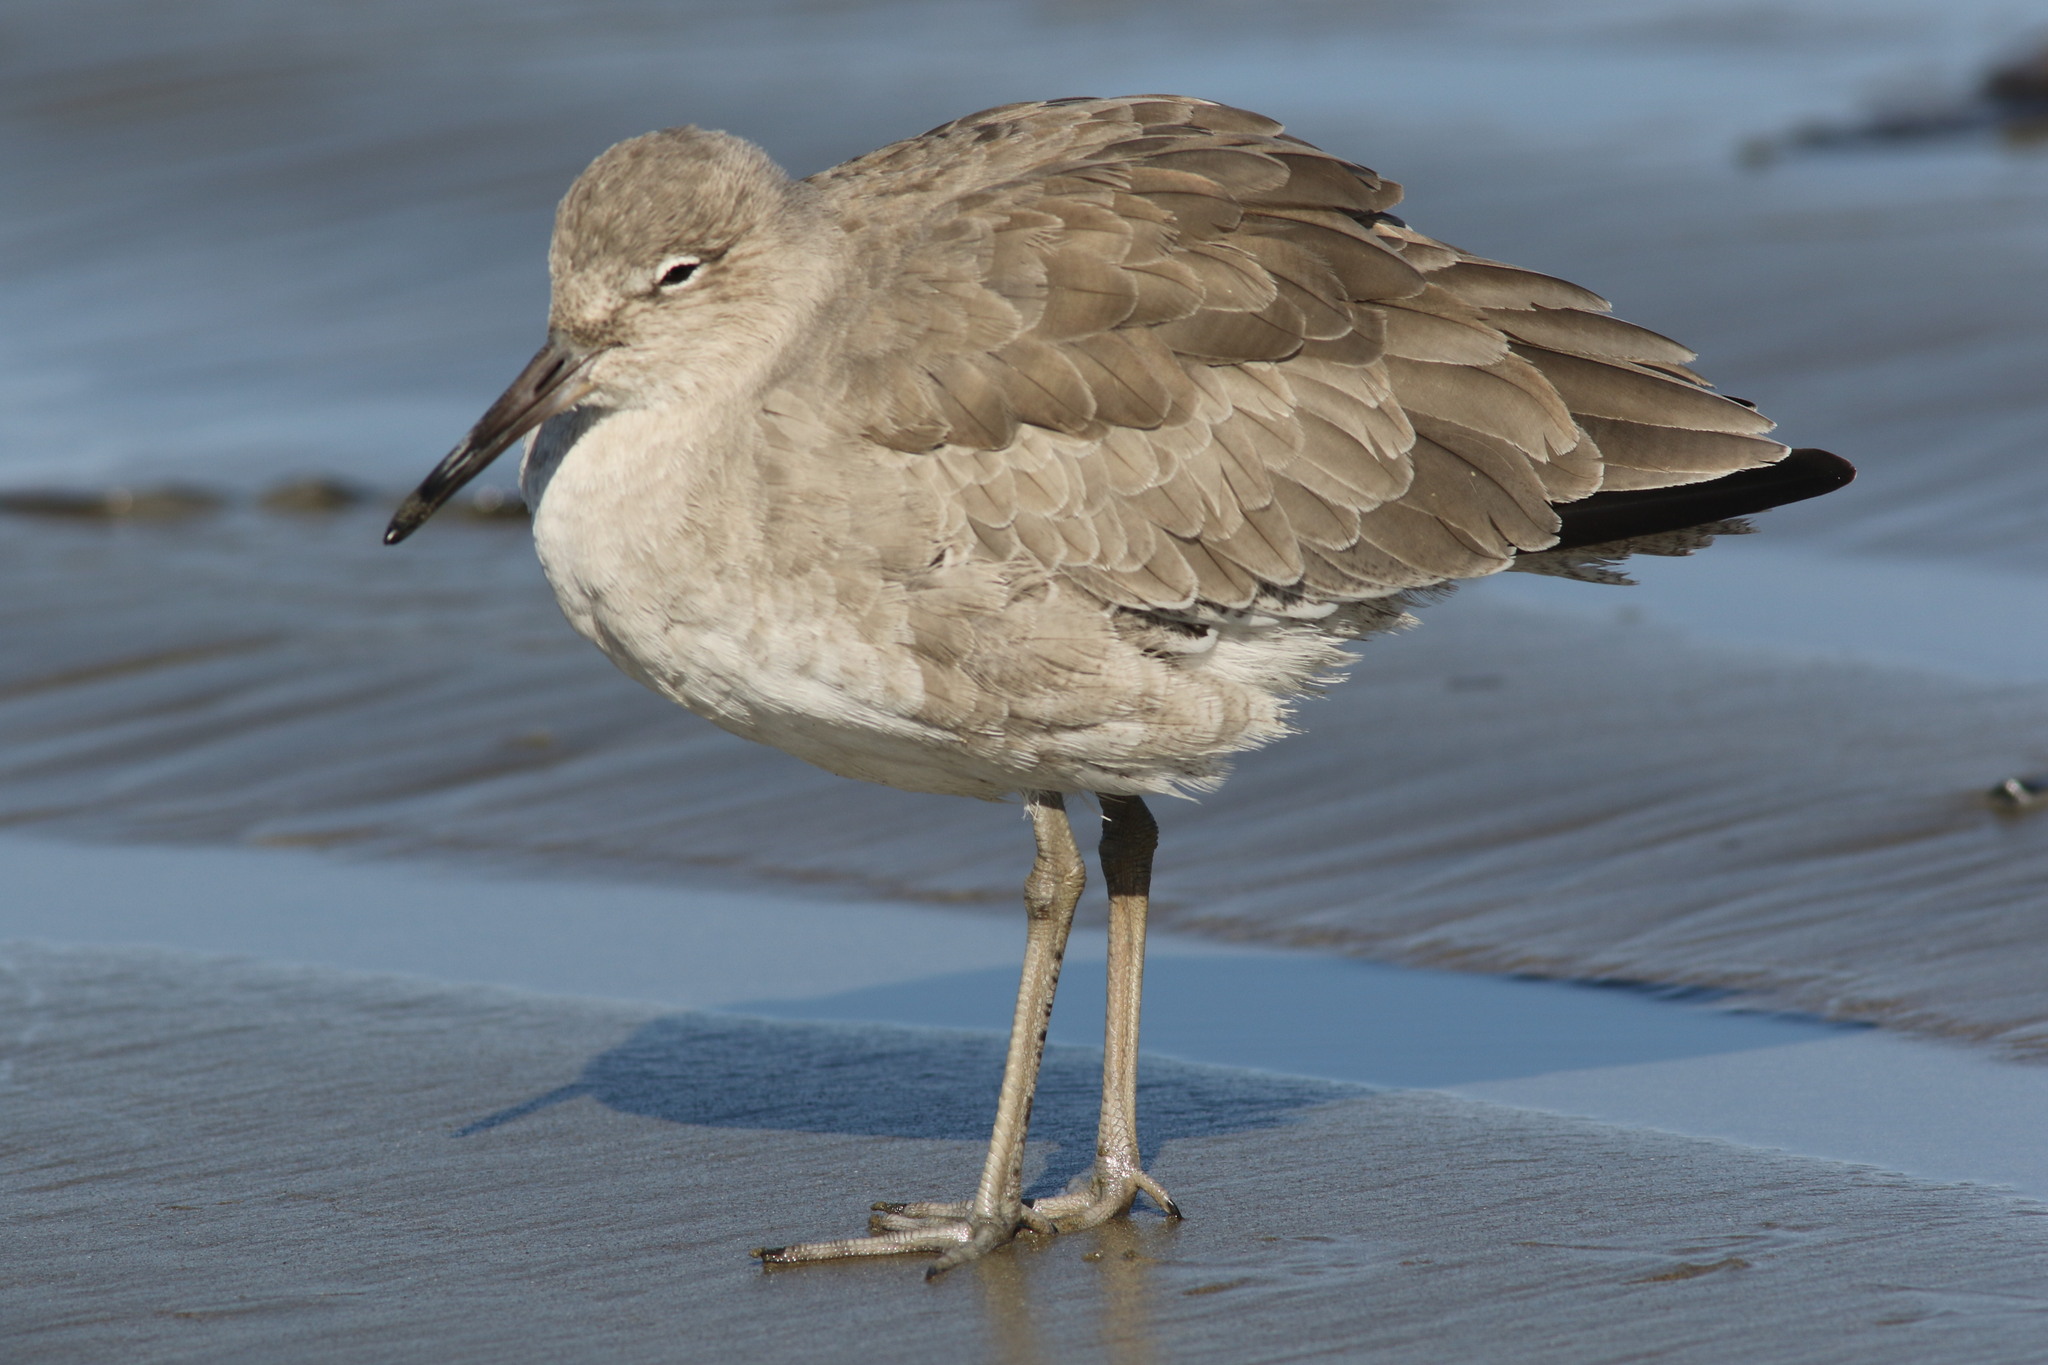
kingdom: Animalia
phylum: Chordata
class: Aves
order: Charadriiformes
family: Scolopacidae
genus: Tringa
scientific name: Tringa semipalmata
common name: Willet
